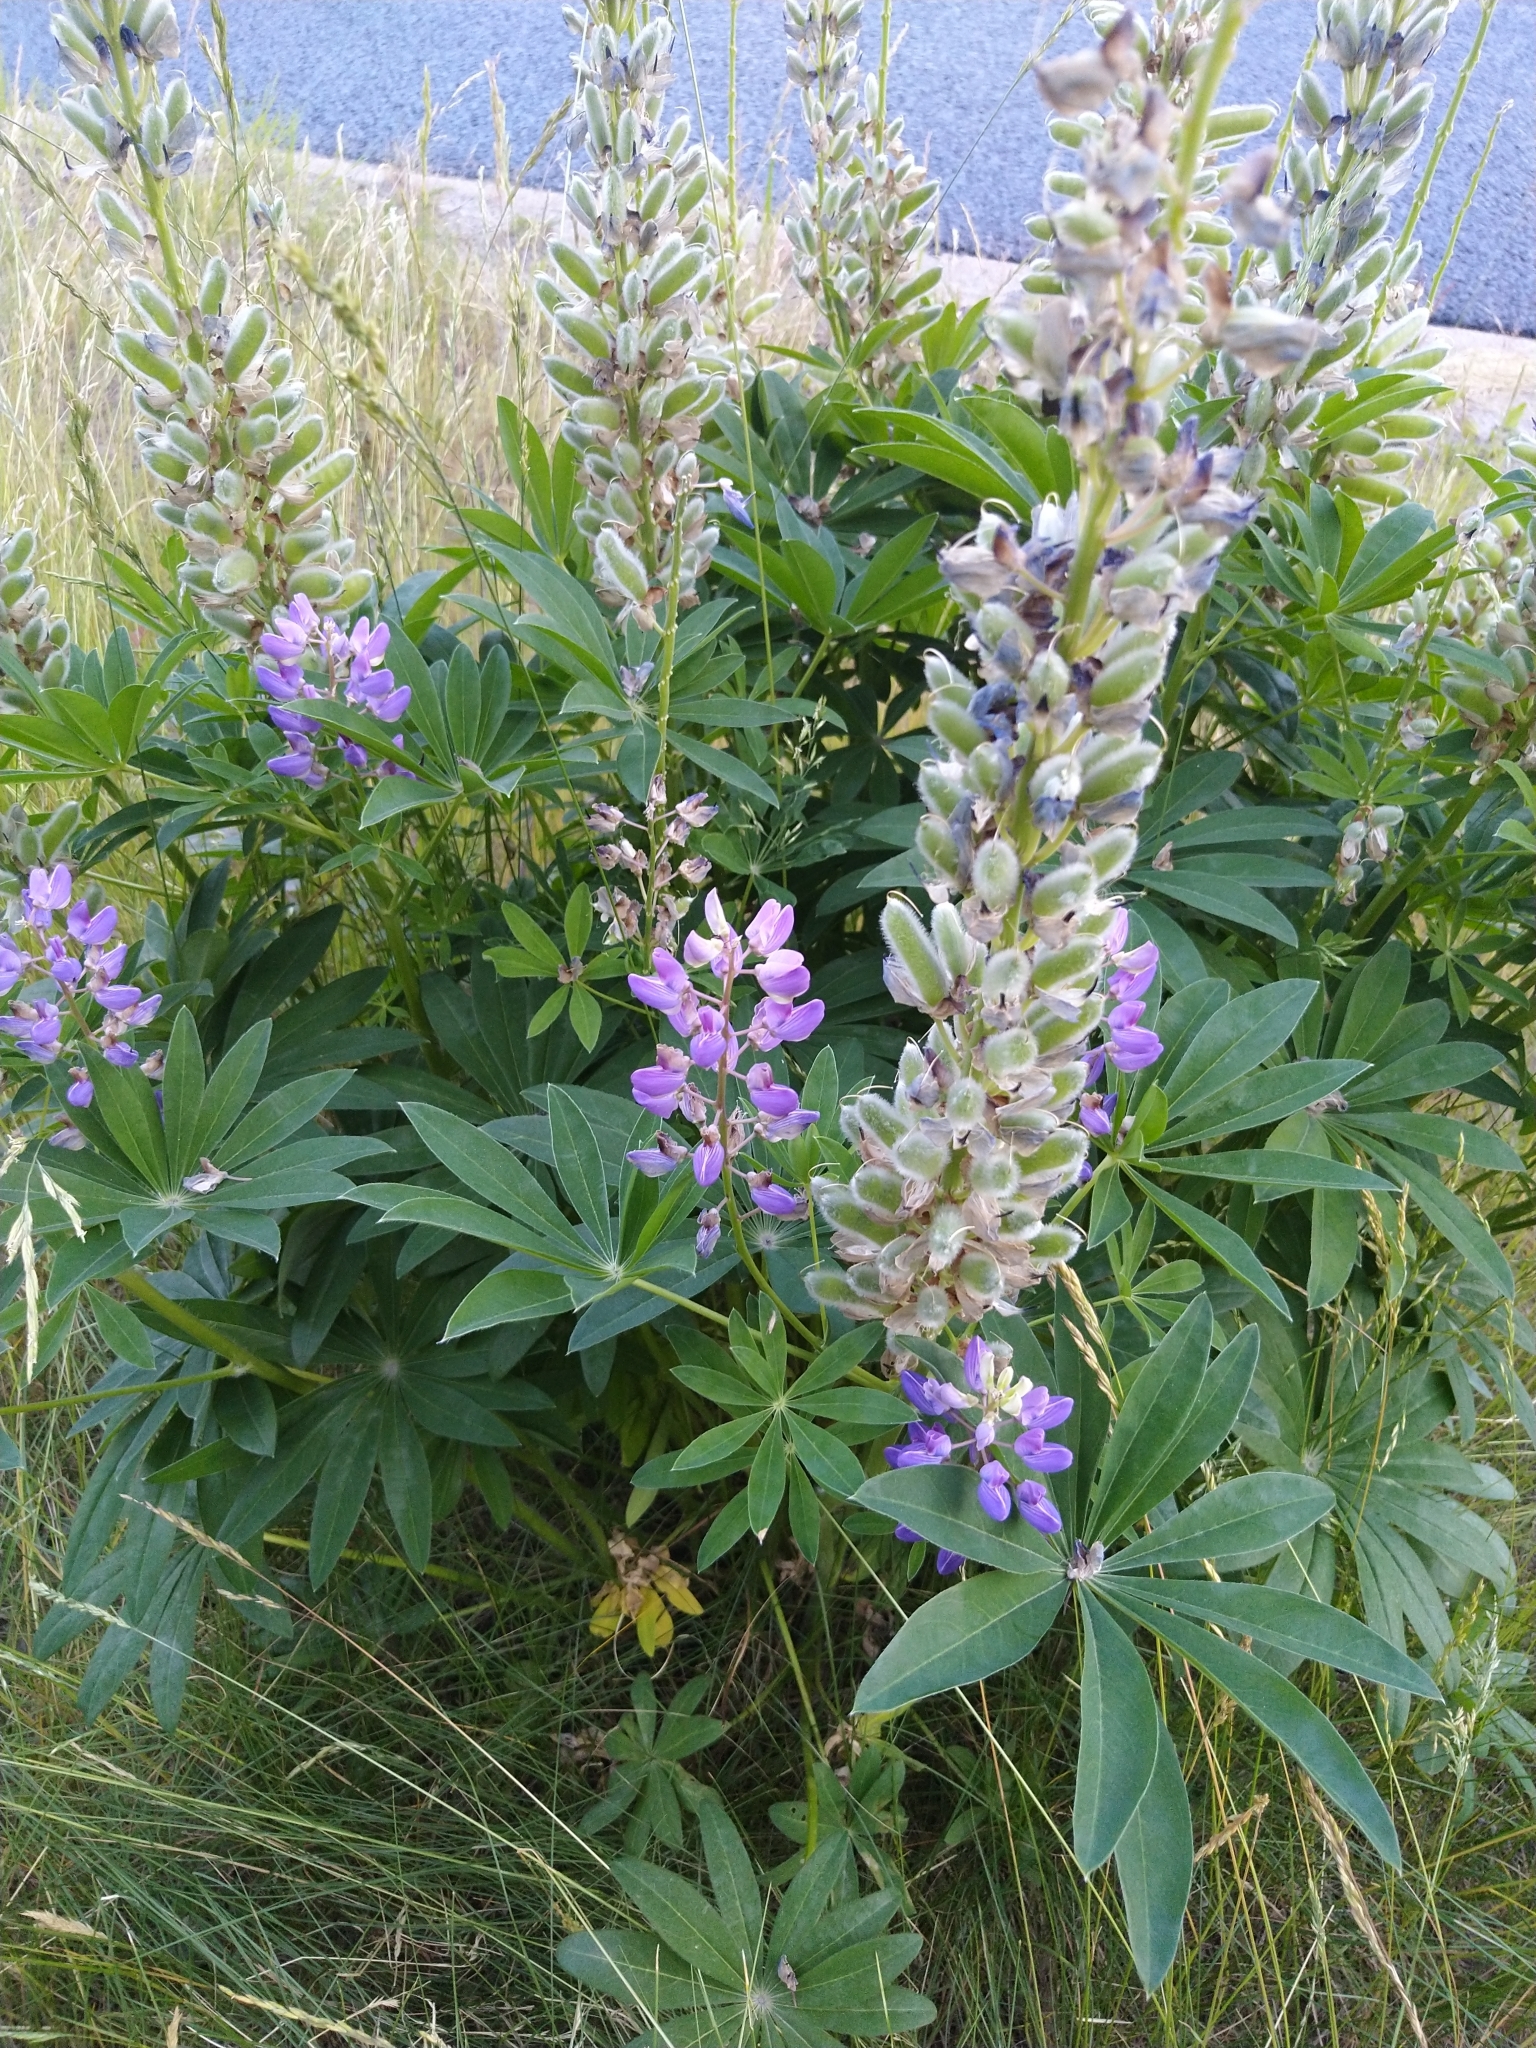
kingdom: Plantae
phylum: Tracheophyta
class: Magnoliopsida
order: Fabales
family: Fabaceae
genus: Lupinus
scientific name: Lupinus polyphyllus
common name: Garden lupin
